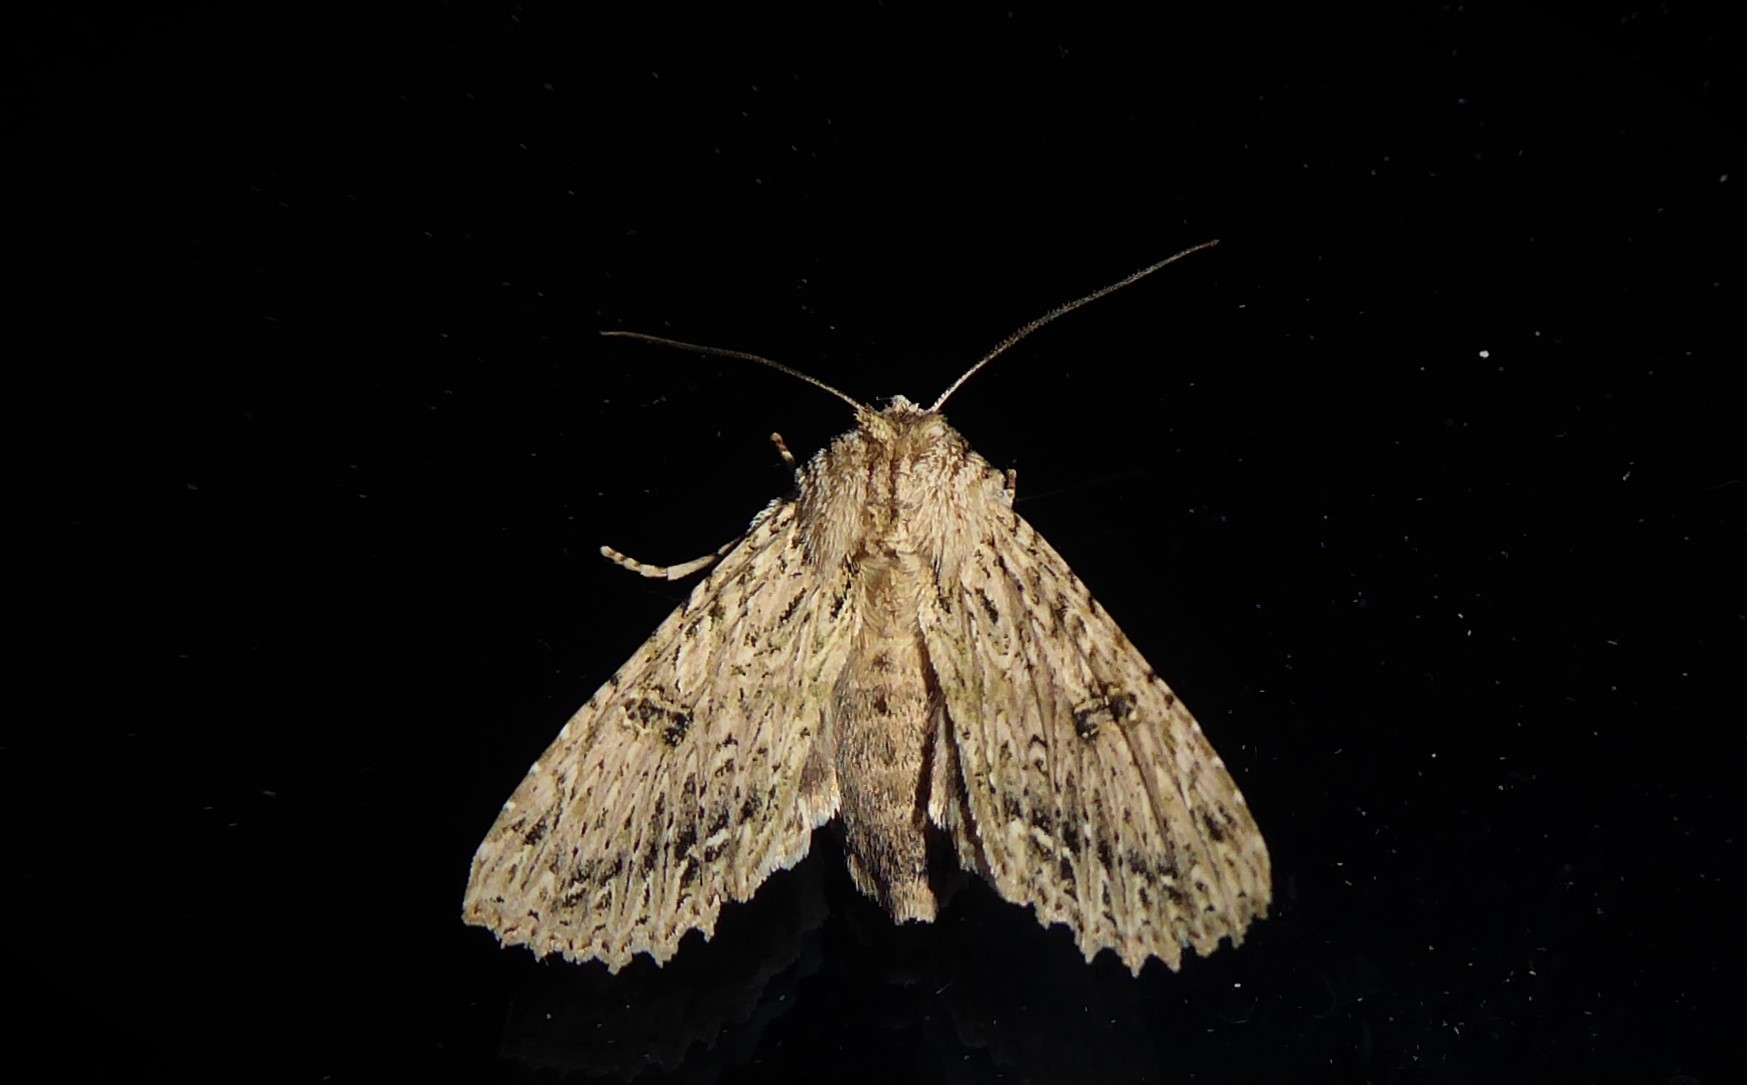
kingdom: Animalia
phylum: Arthropoda
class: Insecta
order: Lepidoptera
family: Noctuidae
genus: Meterana
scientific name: Meterana pansicolor
